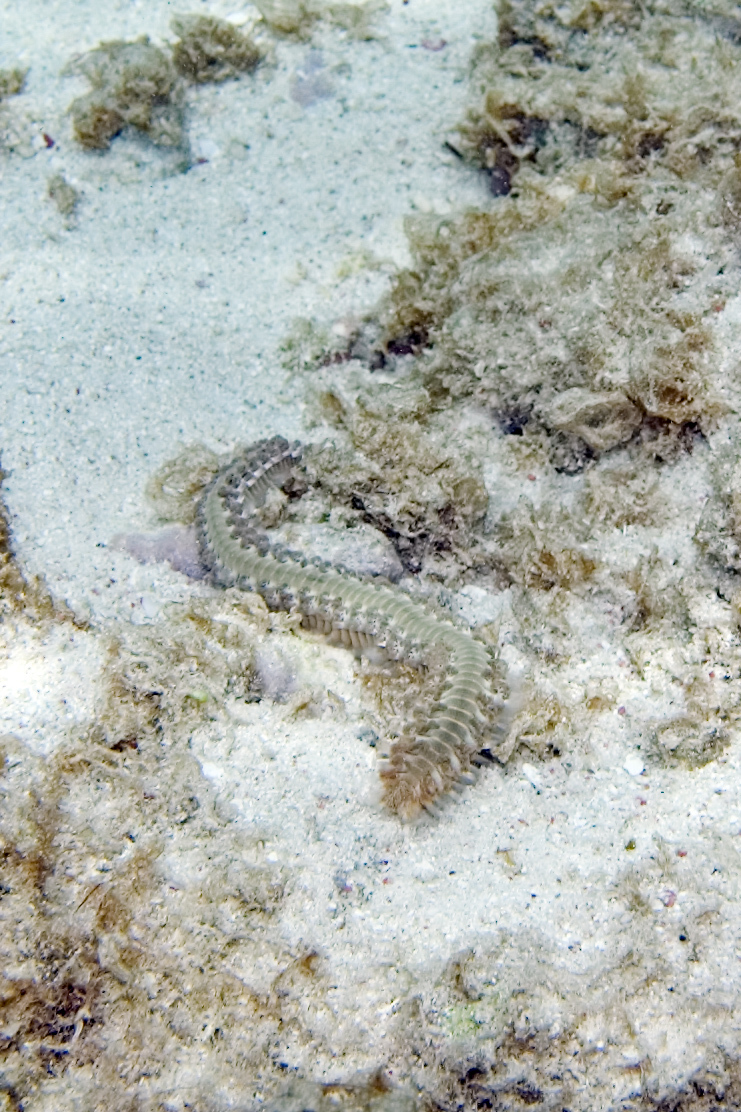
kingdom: Animalia
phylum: Annelida
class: Polychaeta
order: Amphinomida
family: Amphinomidae
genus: Hermodice
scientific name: Hermodice carunculata
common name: Bearded fireworm
